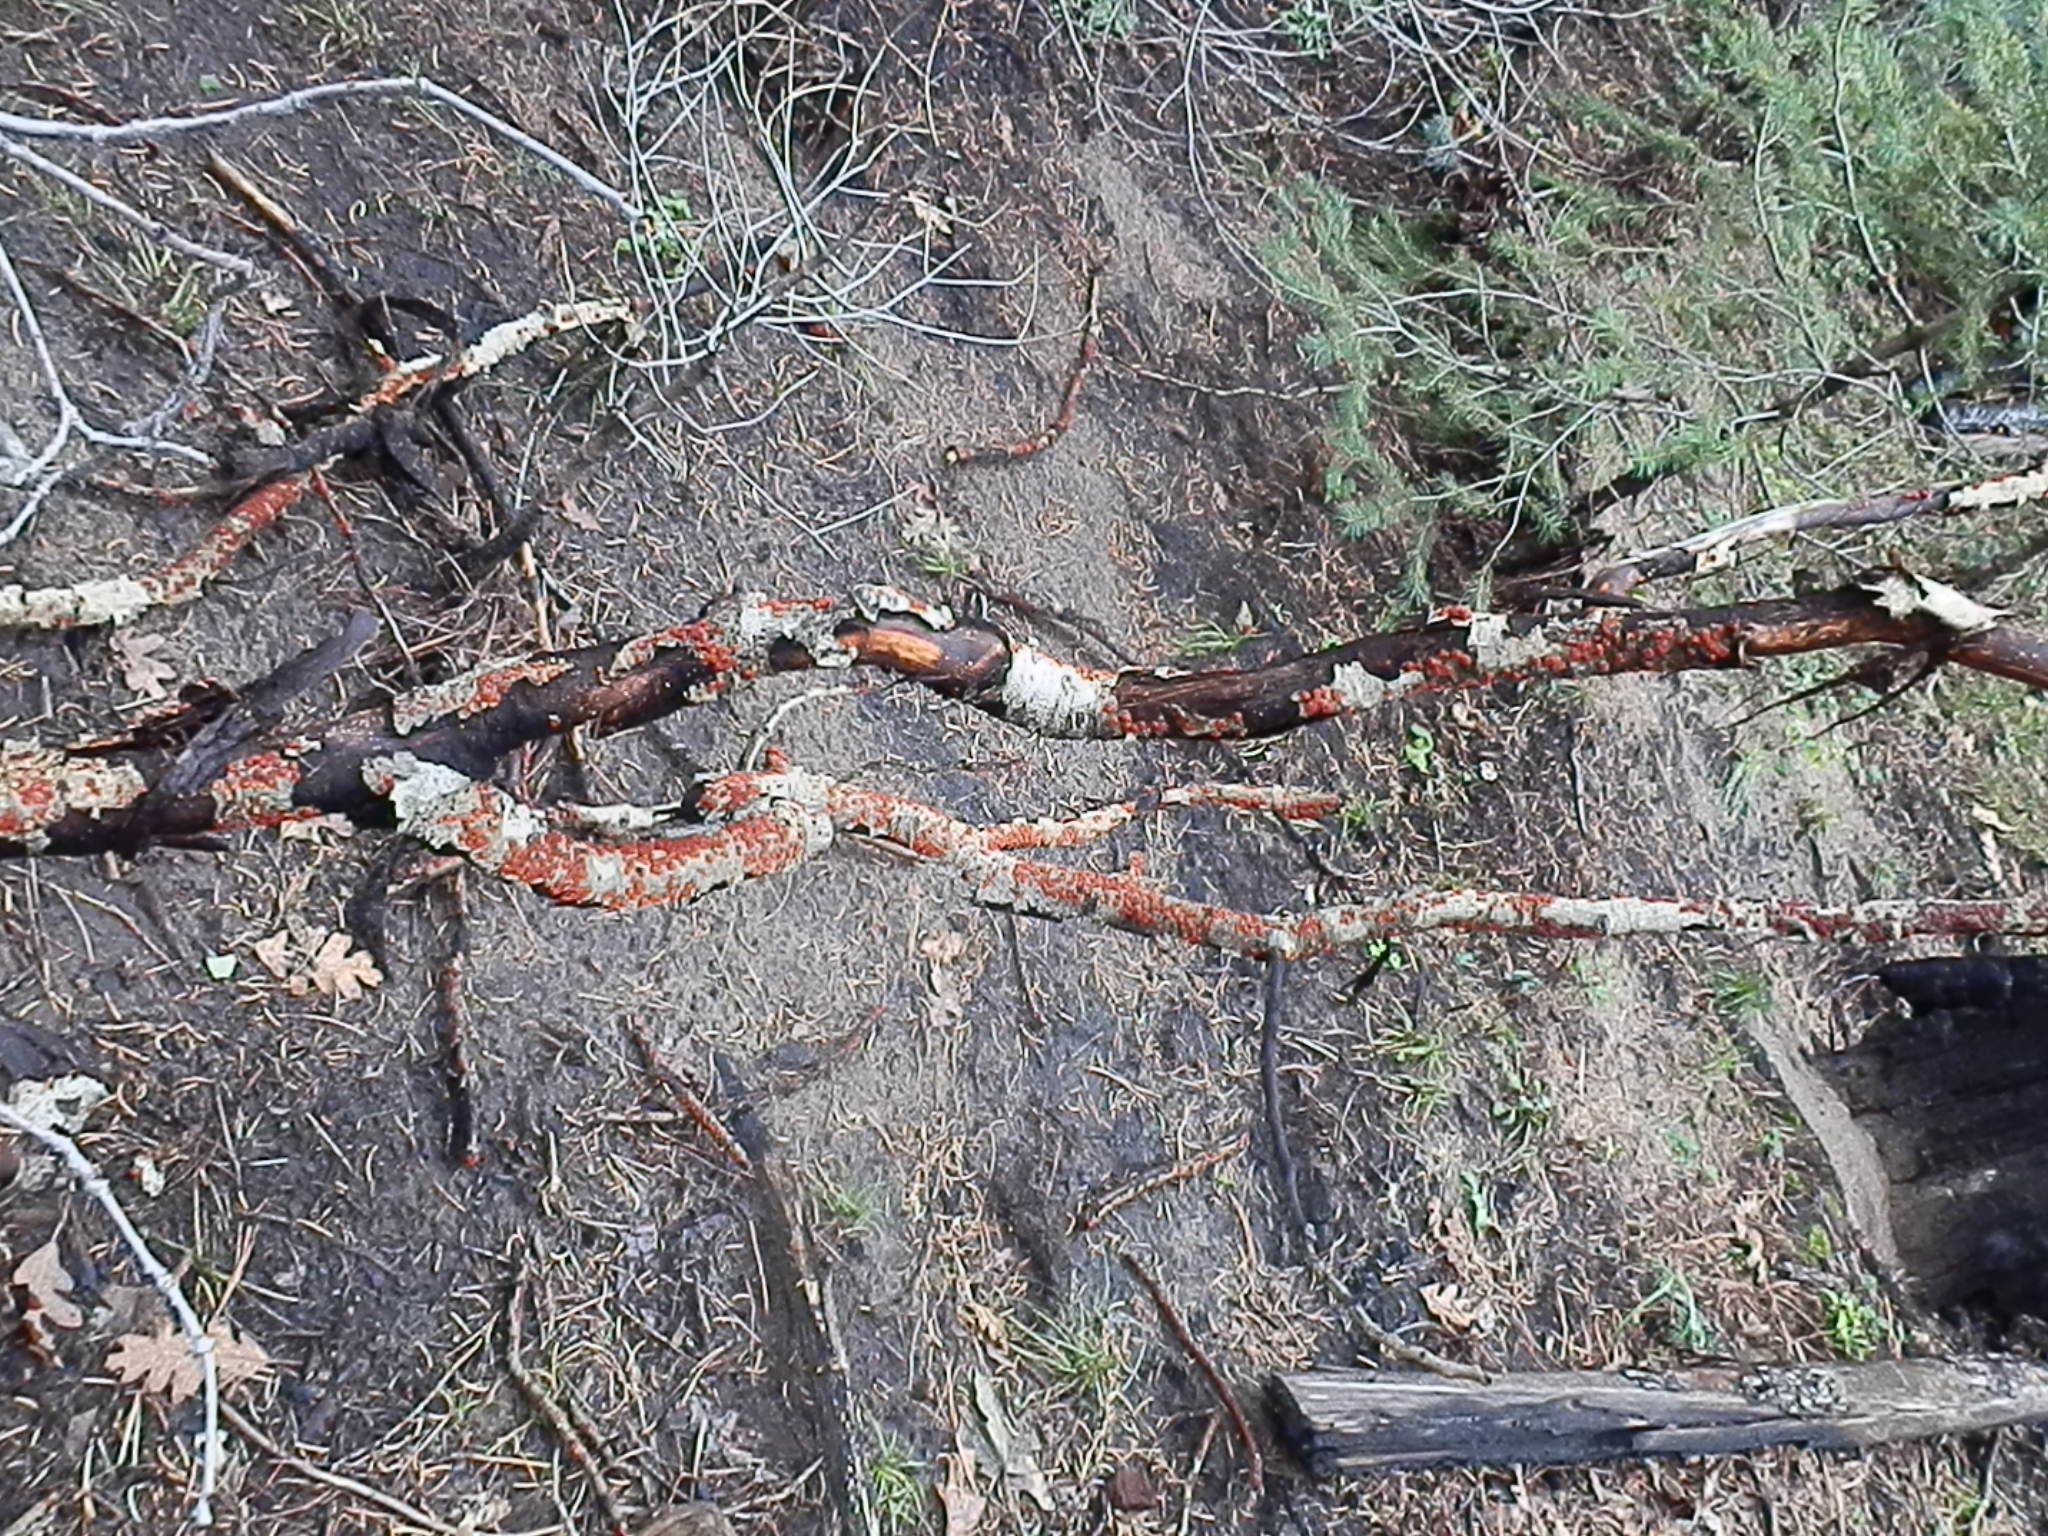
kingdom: Fungi
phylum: Basidiomycota
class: Agaricomycetes
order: Russulales
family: Peniophoraceae
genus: Peniophora
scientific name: Peniophora rufa
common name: Red tree brain fungus
